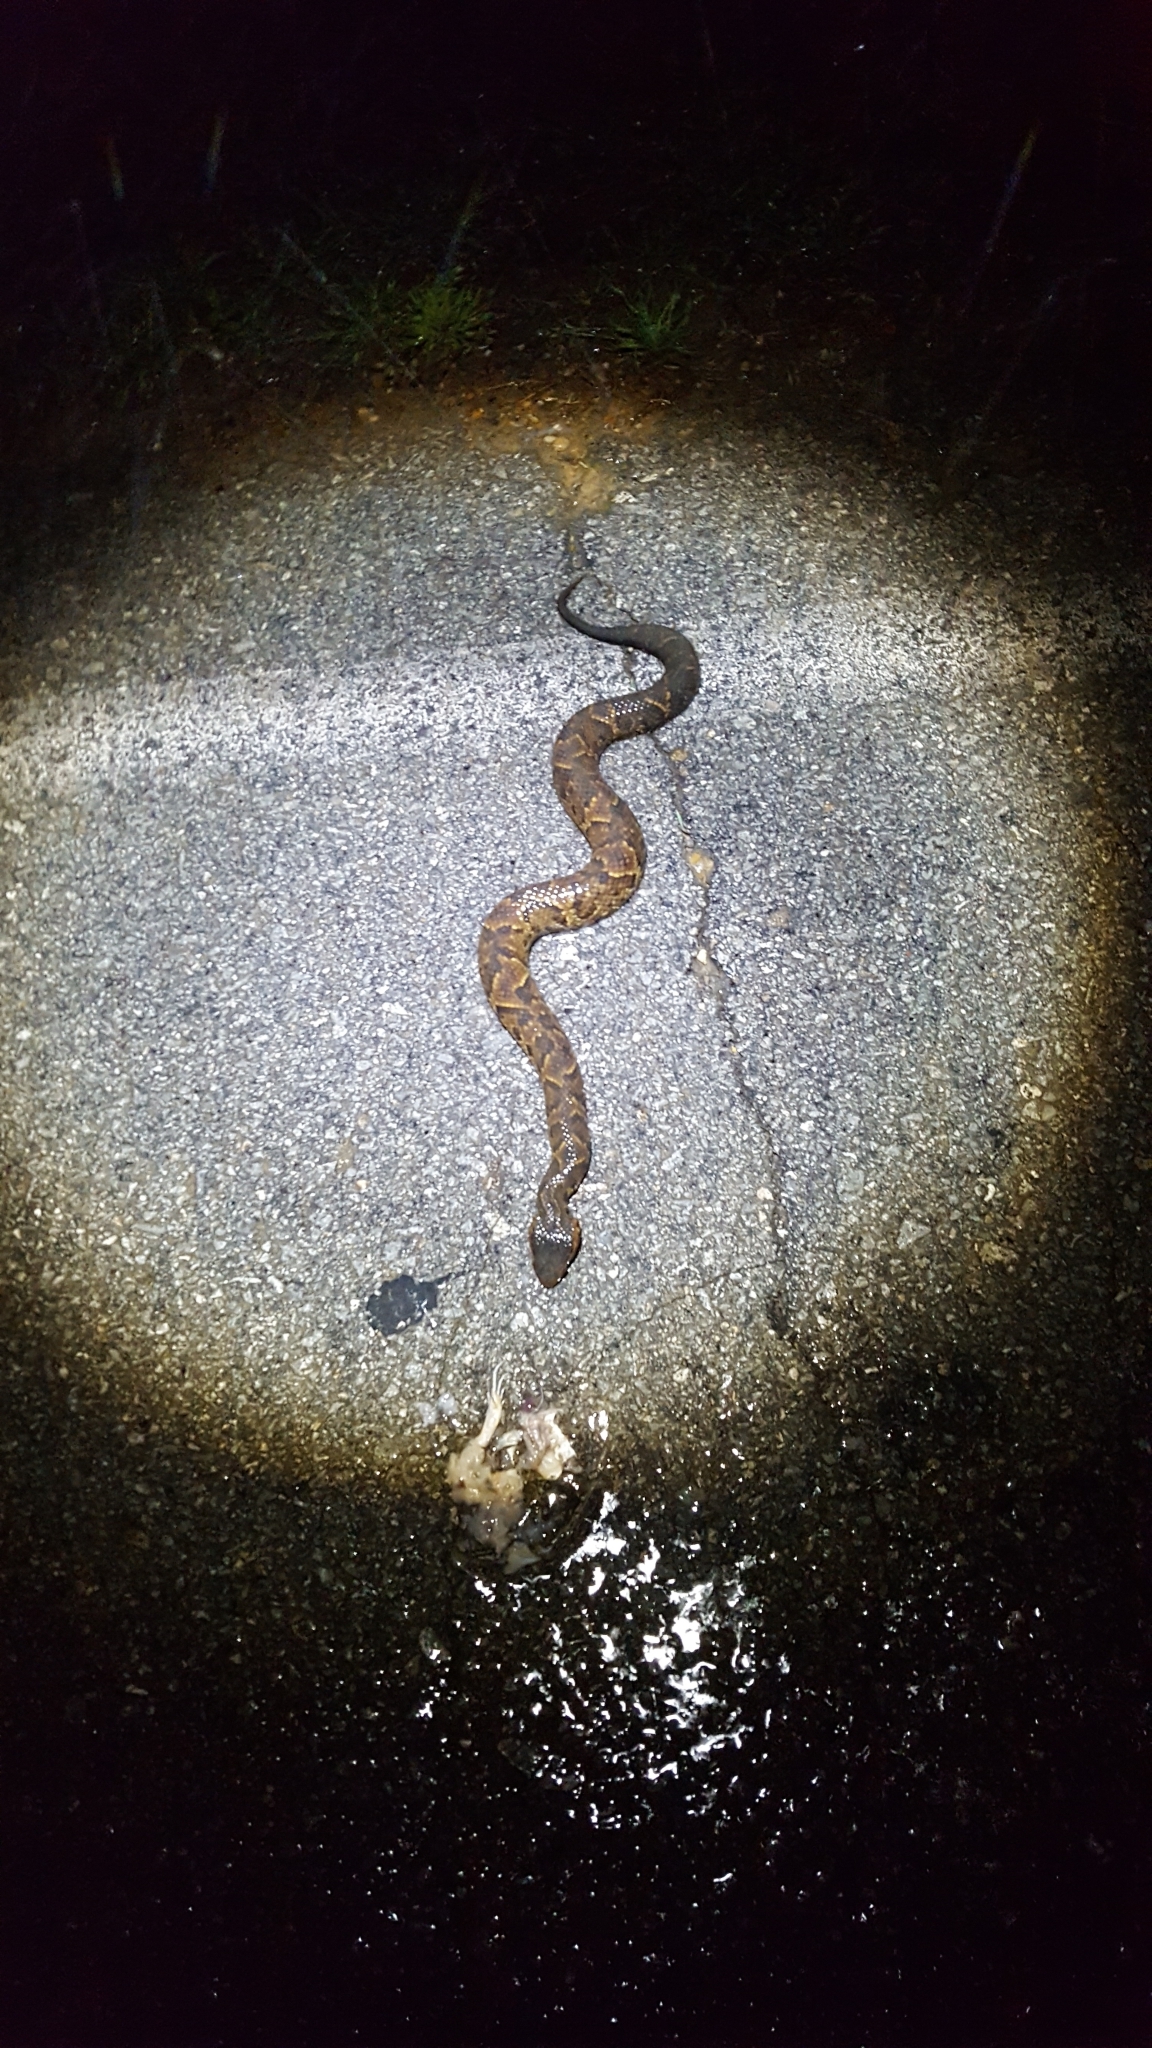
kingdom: Animalia
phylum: Chordata
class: Squamata
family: Viperidae
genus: Agkistrodon
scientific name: Agkistrodon piscivorus
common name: Cottonmouth
